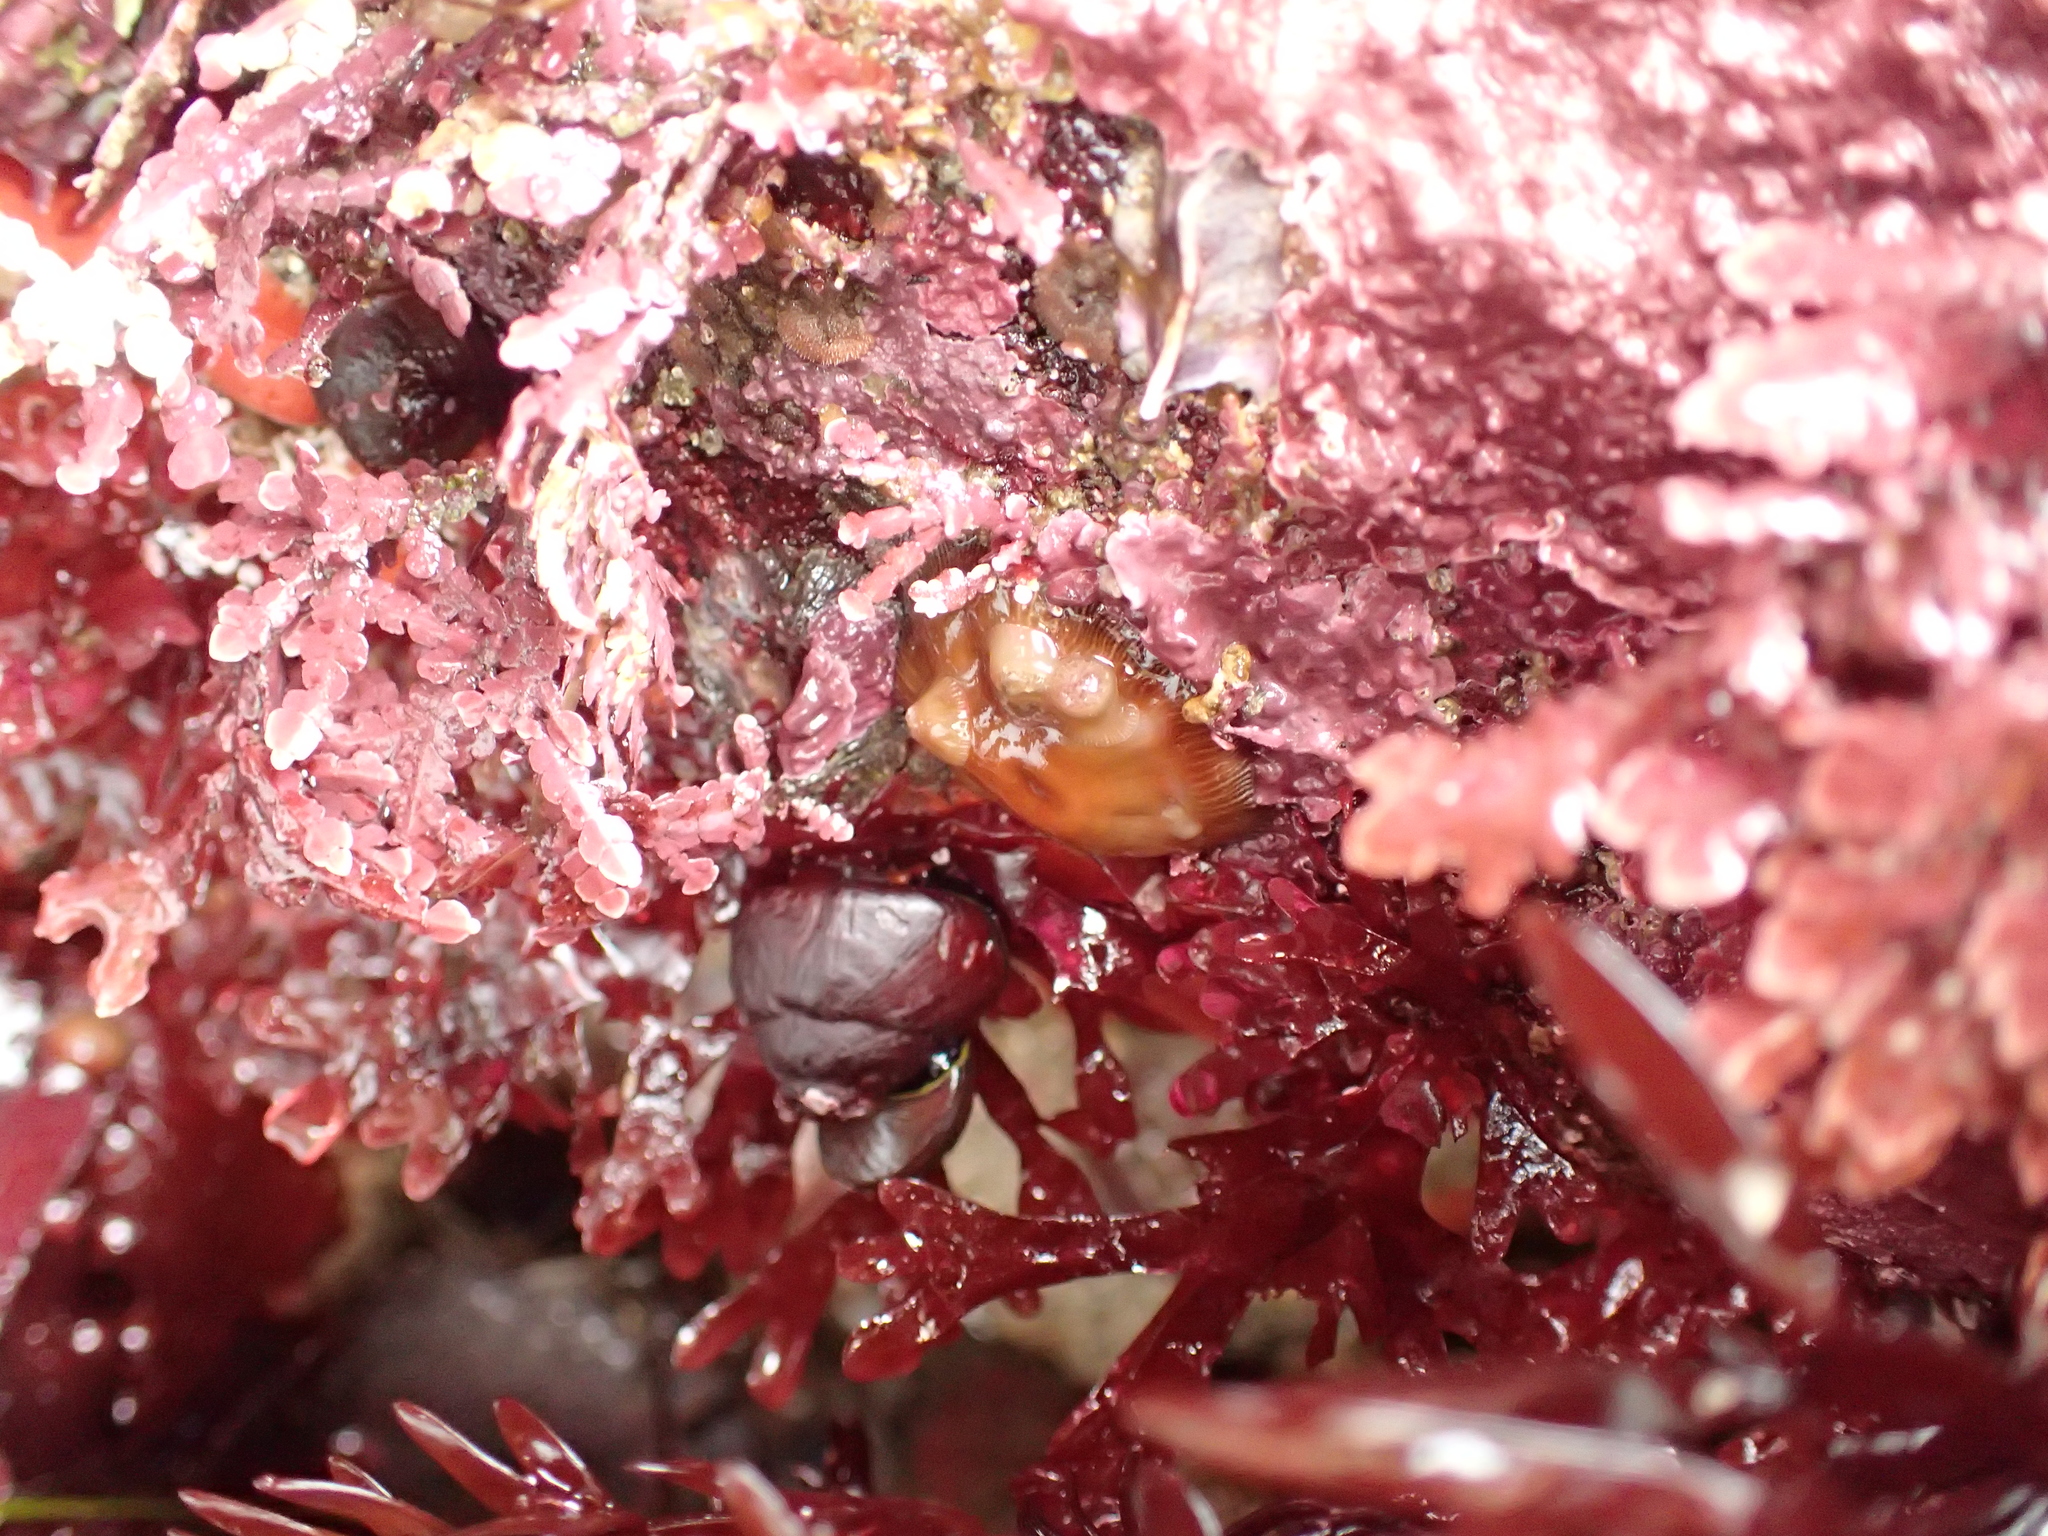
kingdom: Animalia
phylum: Cnidaria
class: Anthozoa
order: Actiniaria
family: Actiniidae
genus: Epiactis
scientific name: Epiactis prolifera
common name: Brooding anemone
